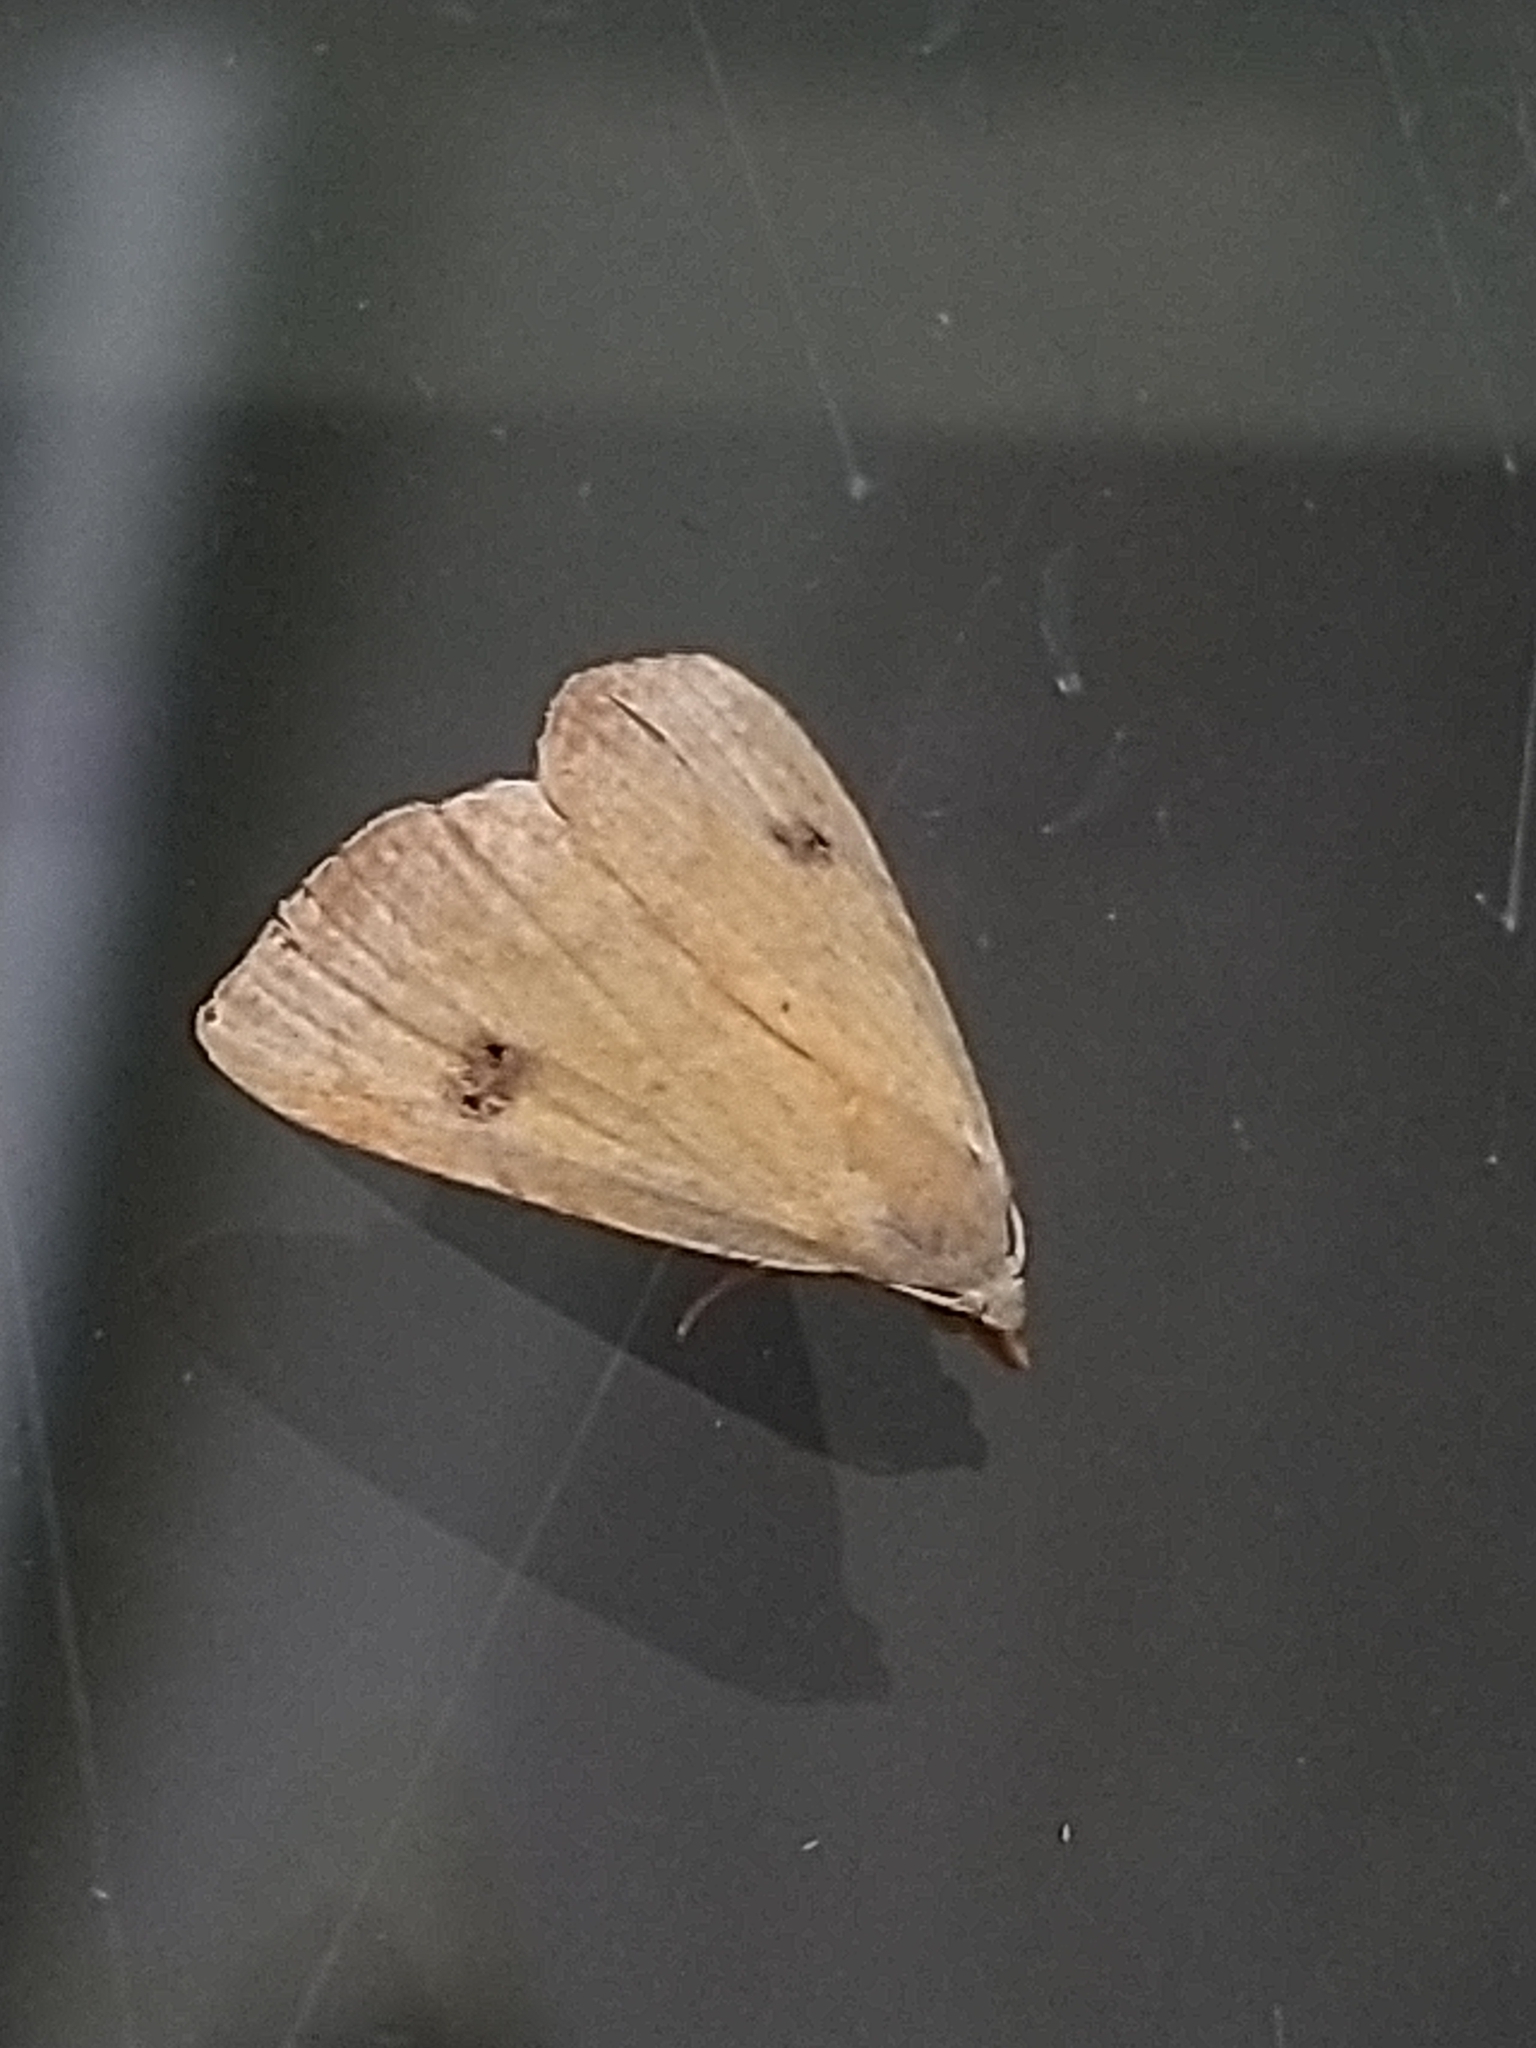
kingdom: Animalia
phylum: Arthropoda
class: Insecta
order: Lepidoptera
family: Erebidae
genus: Rivula
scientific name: Rivula sericealis
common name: Straw dot
